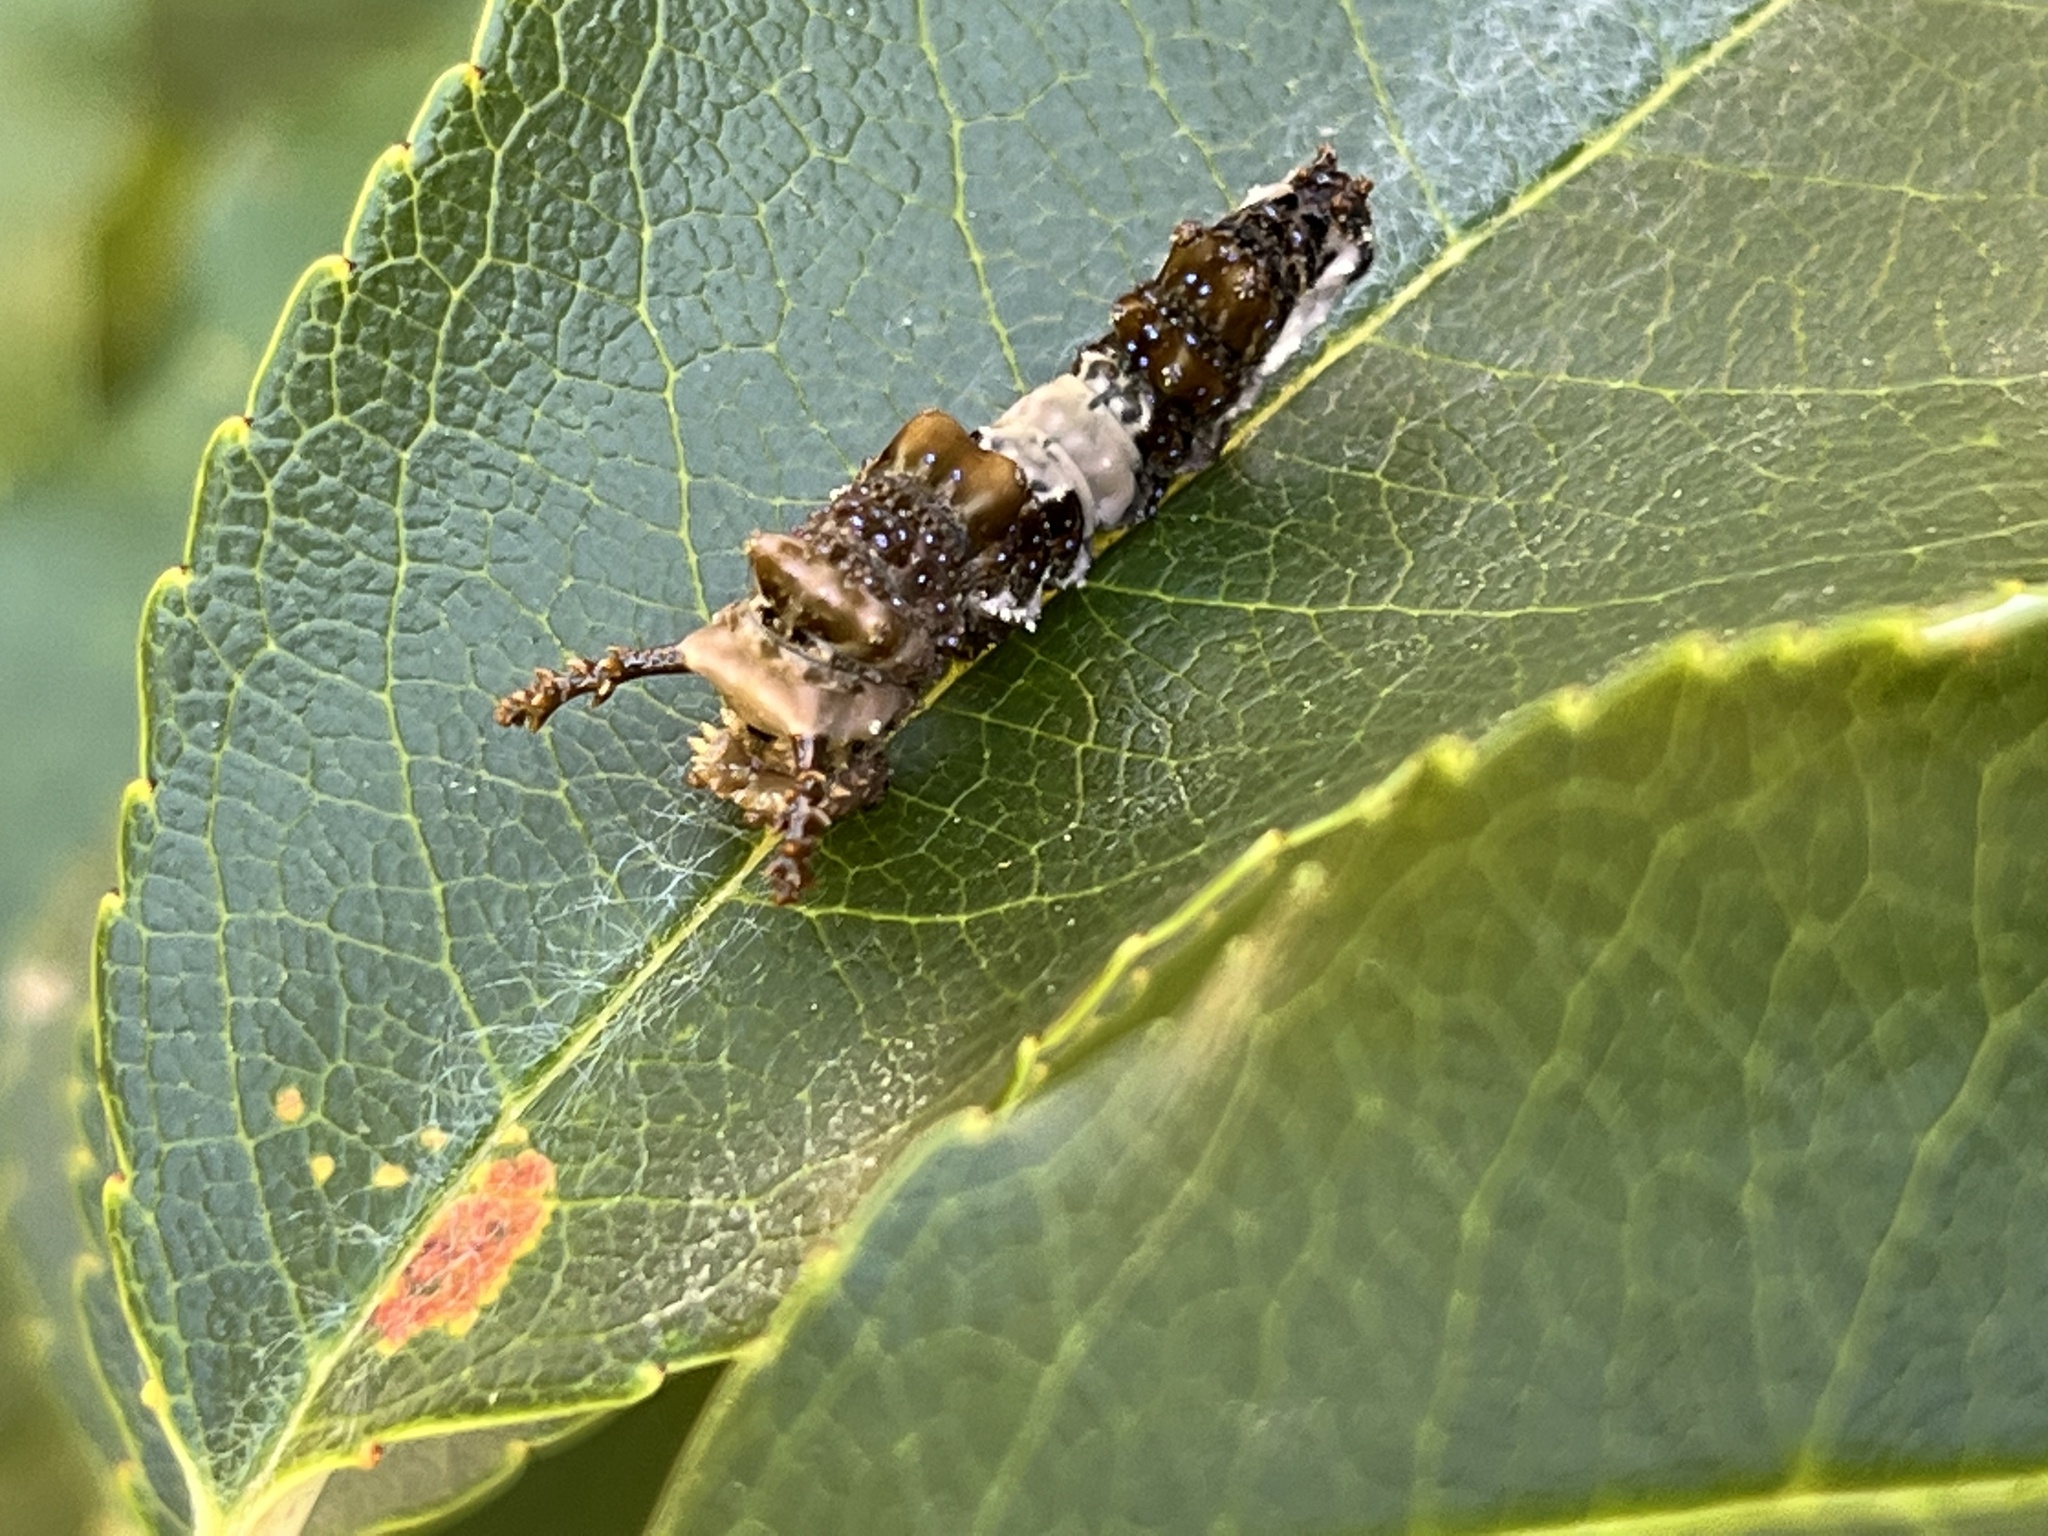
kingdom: Animalia
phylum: Arthropoda
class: Insecta
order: Lepidoptera
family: Nymphalidae
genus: Limenitis
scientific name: Limenitis astyanax
